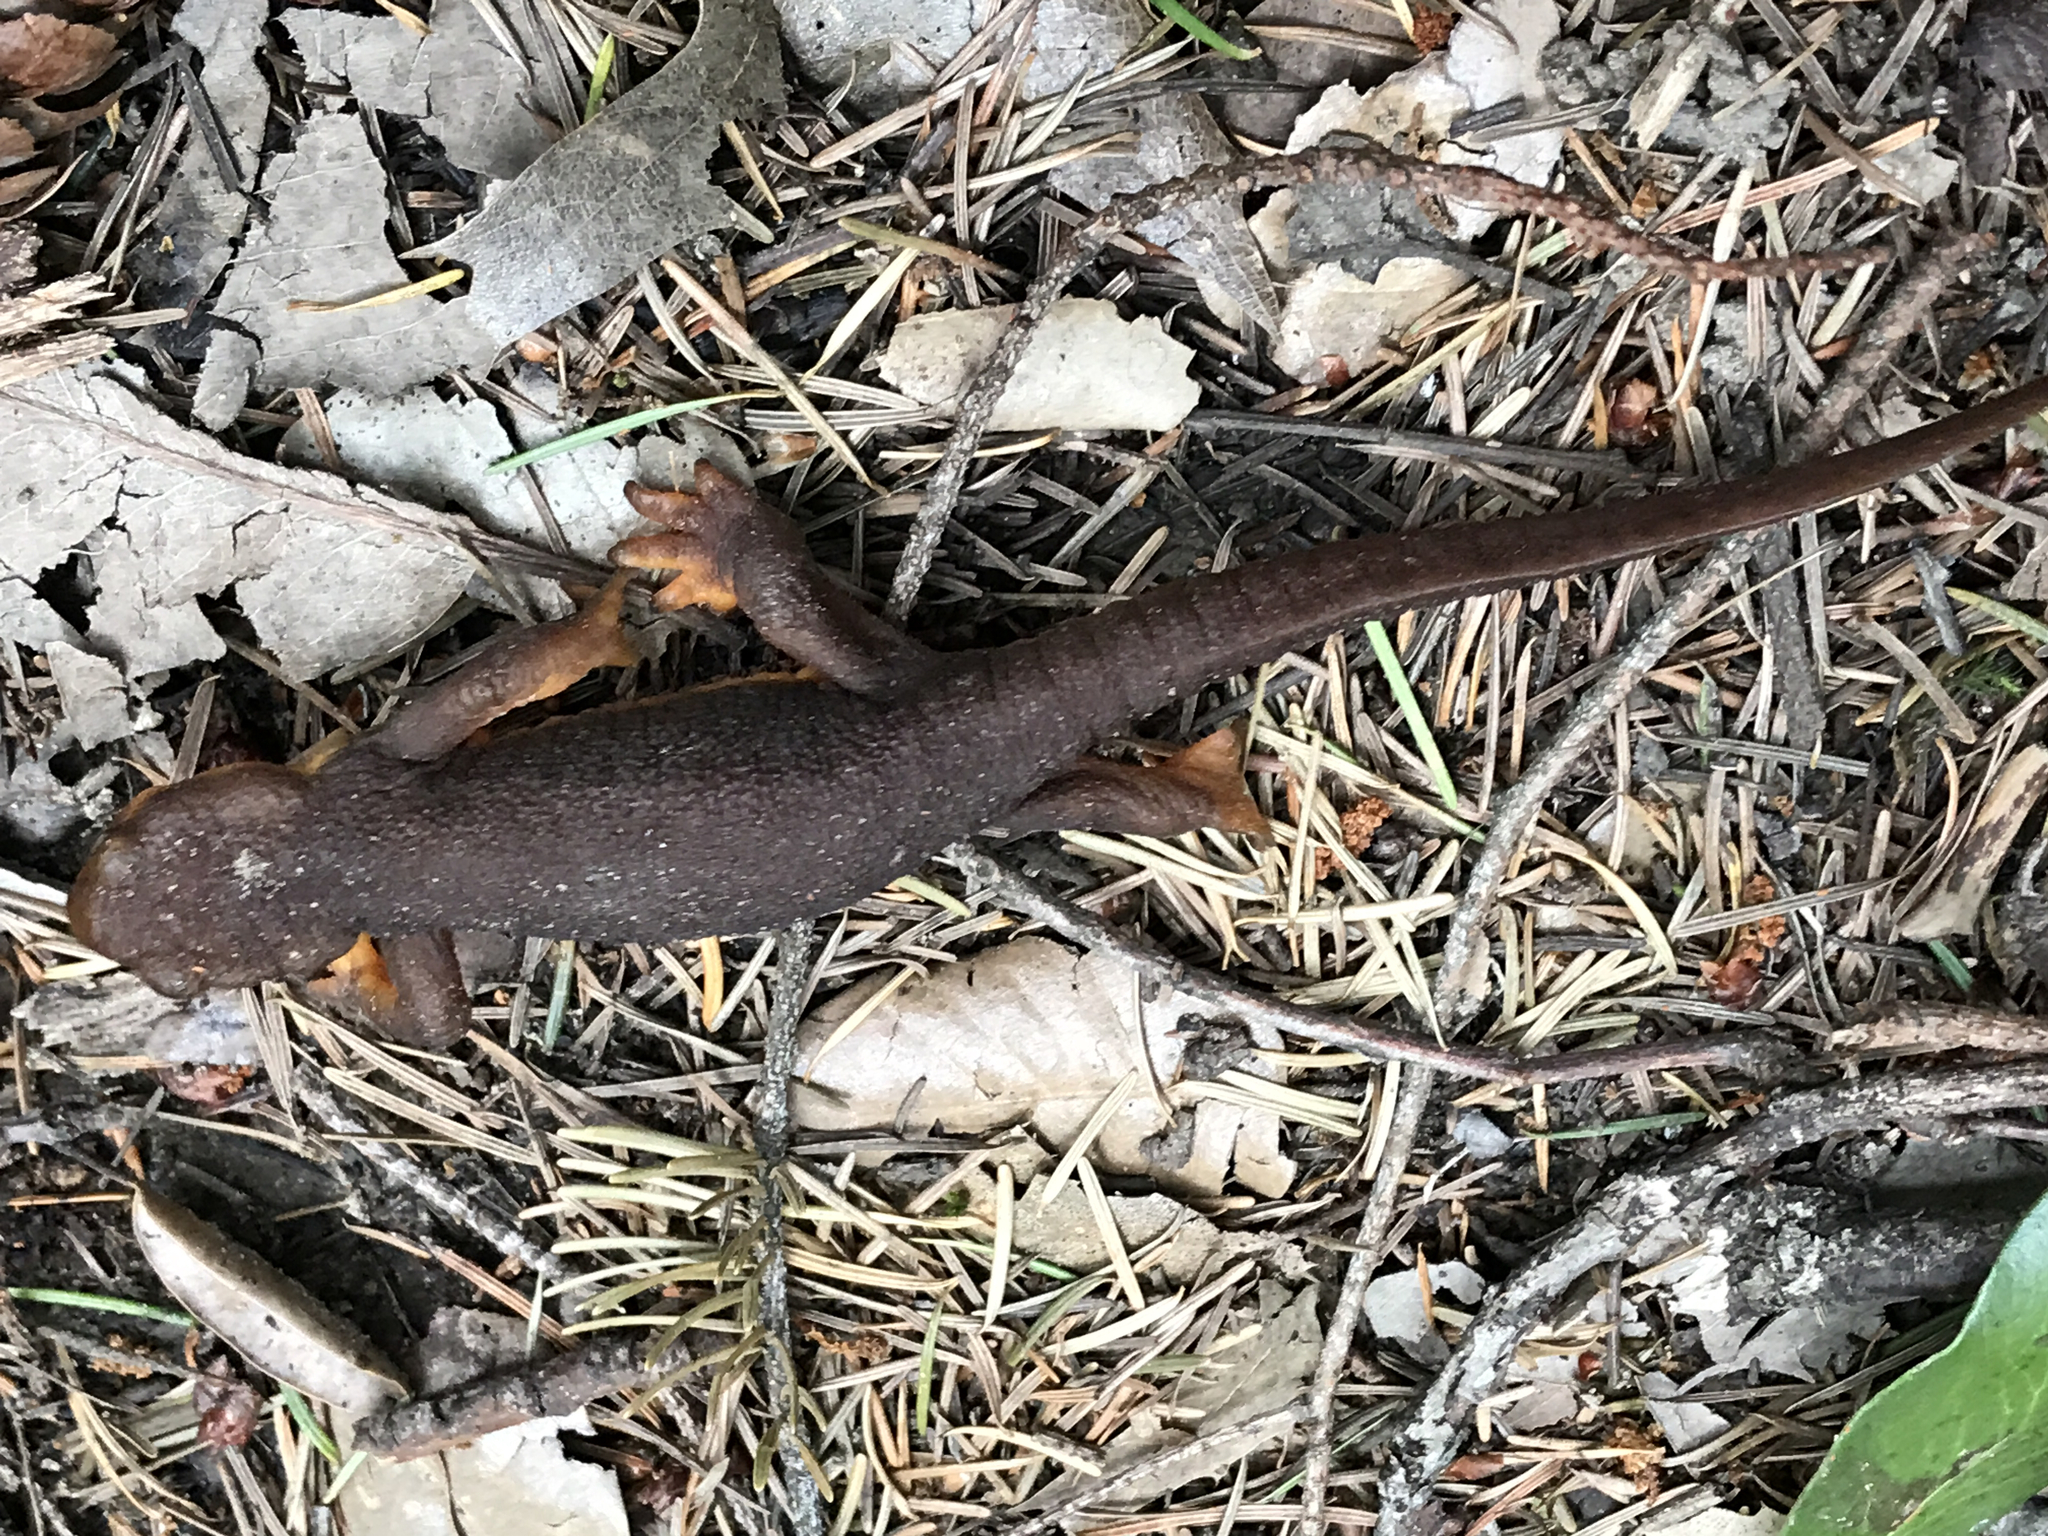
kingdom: Animalia
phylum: Chordata
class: Amphibia
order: Caudata
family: Salamandridae
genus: Taricha
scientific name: Taricha torosa
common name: California newt
